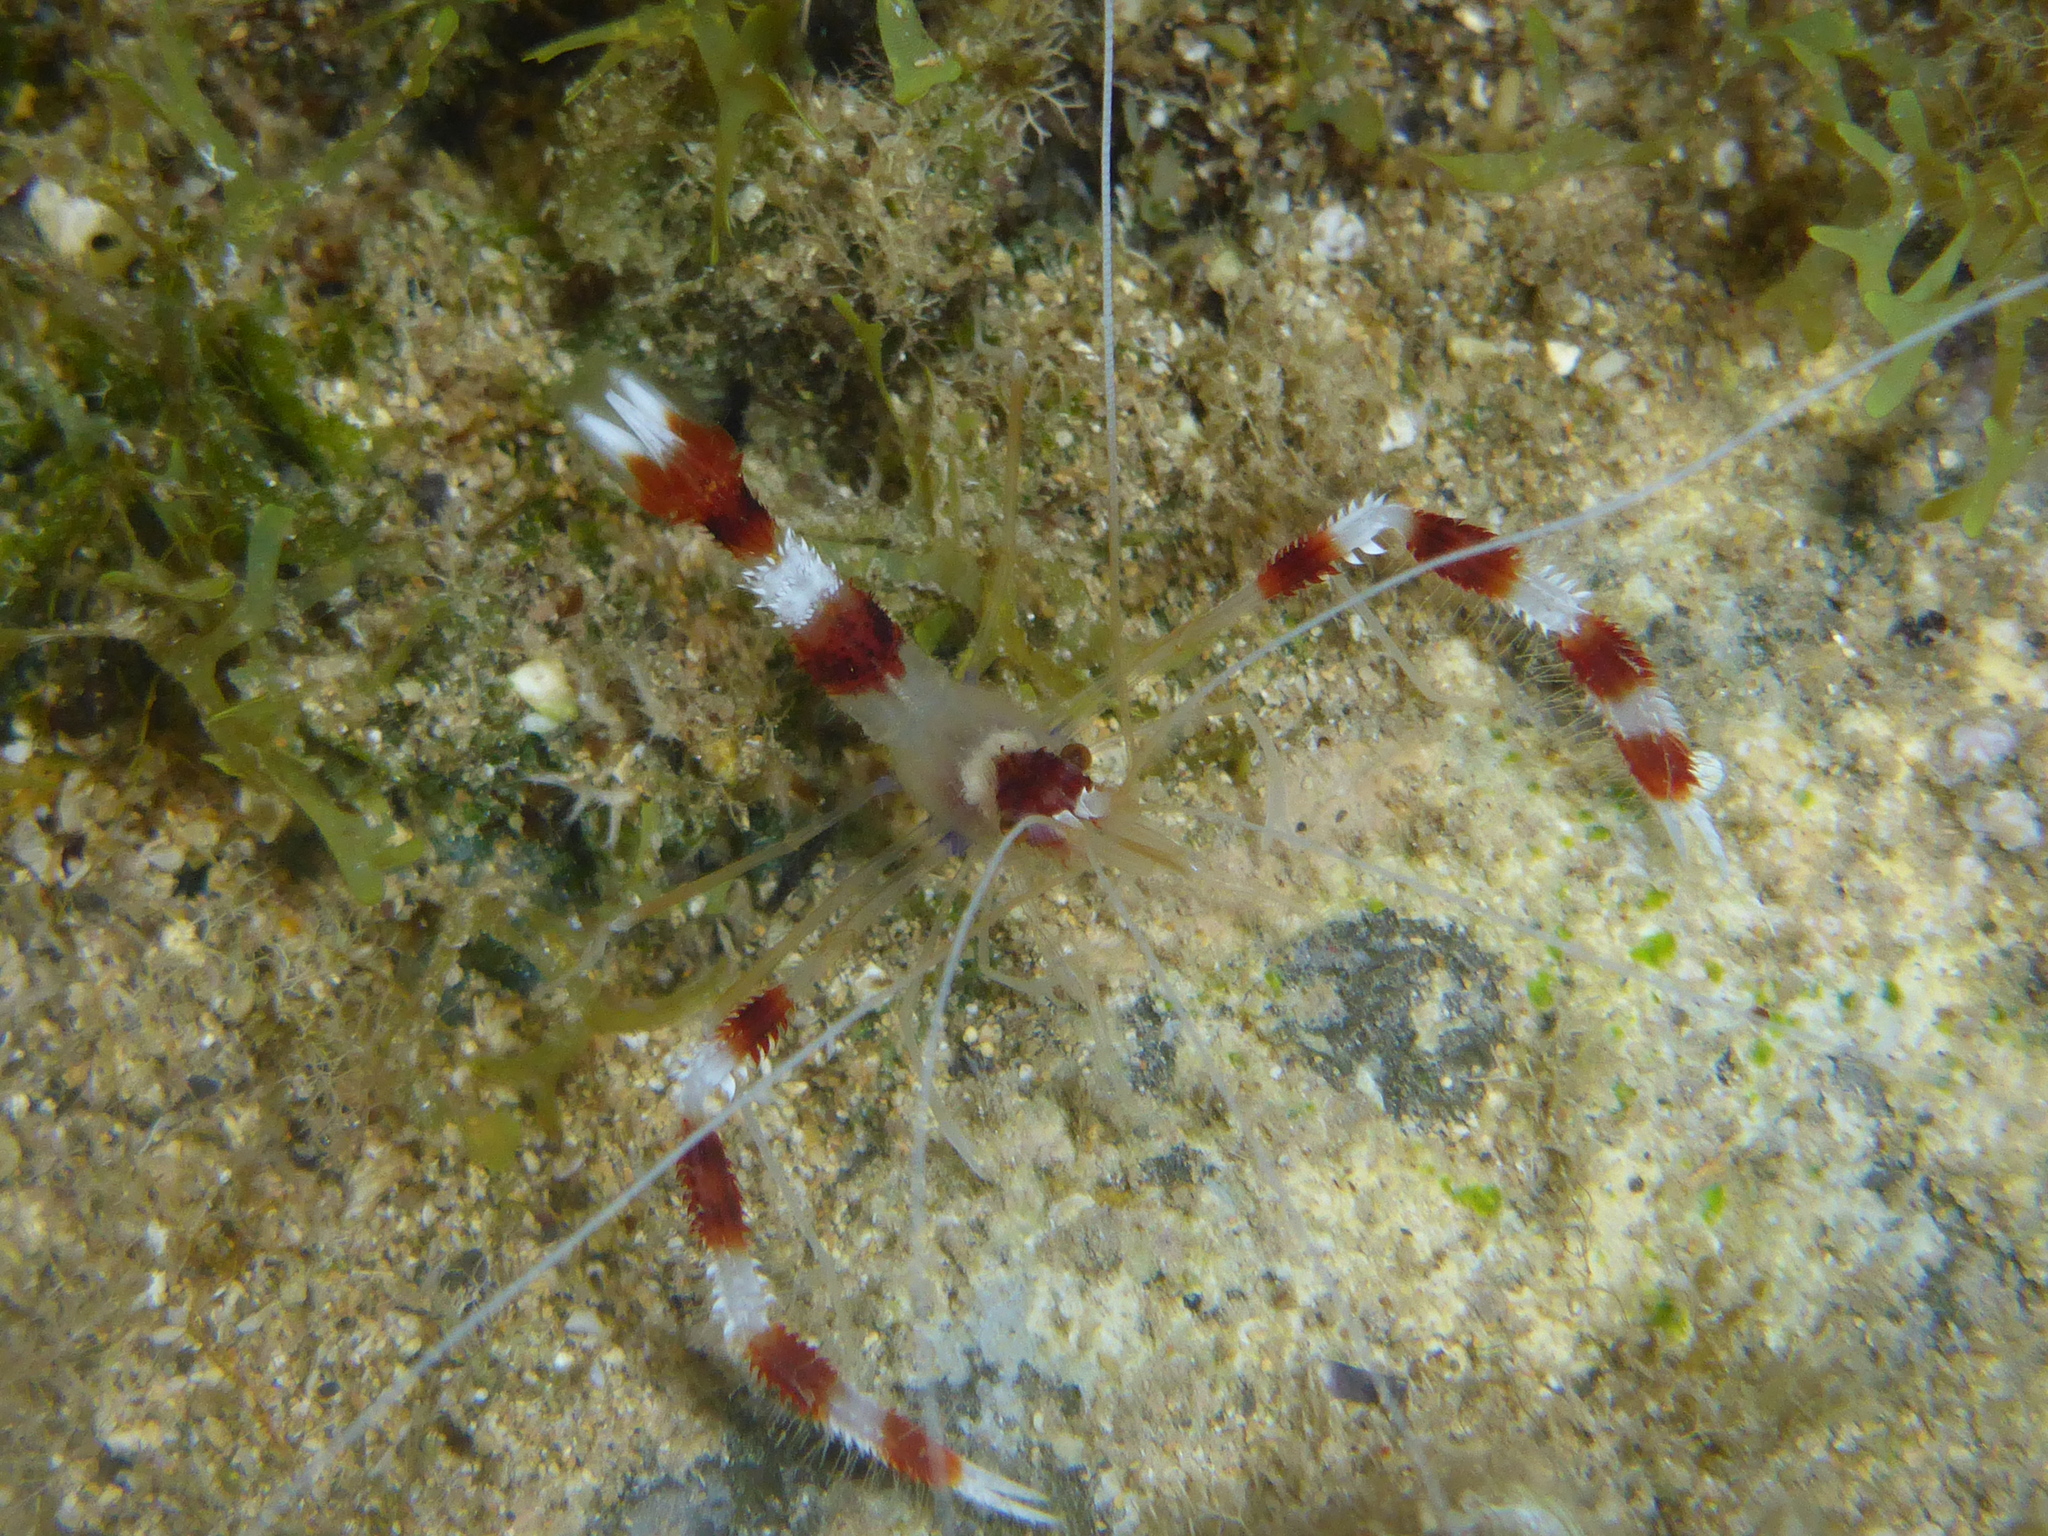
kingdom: Animalia
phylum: Arthropoda
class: Malacostraca
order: Decapoda
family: Stenopodidae
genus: Stenopus
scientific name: Stenopus hispidus
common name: Banded coral shrimp
